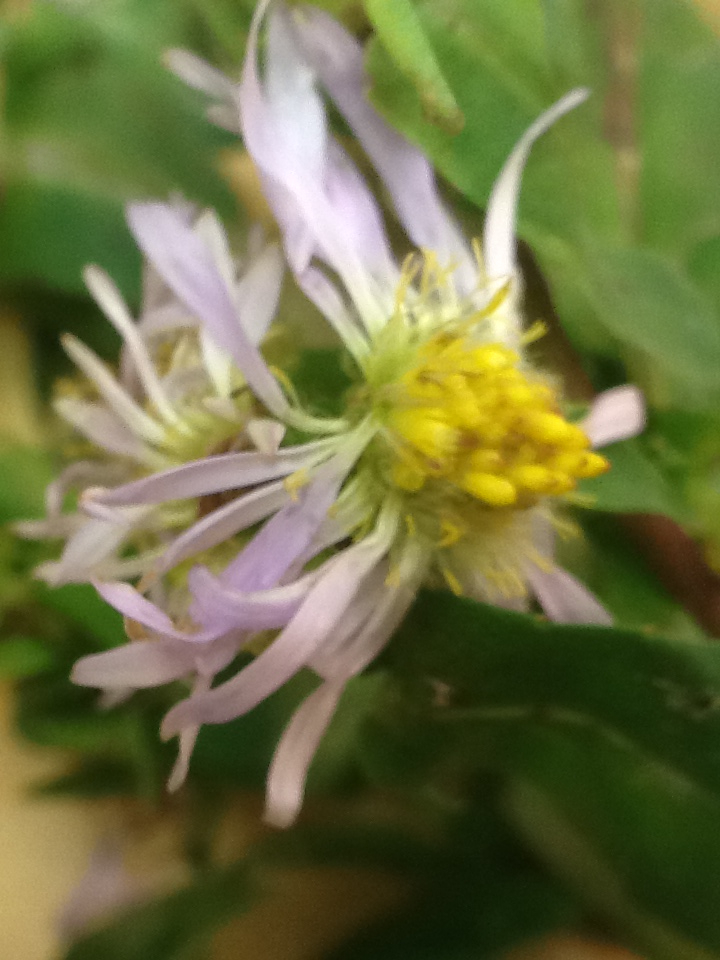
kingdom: Plantae
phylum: Tracheophyta
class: Magnoliopsida
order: Asterales
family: Asteraceae
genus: Symphyotrichum
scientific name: Symphyotrichum puniceum
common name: Bog aster
